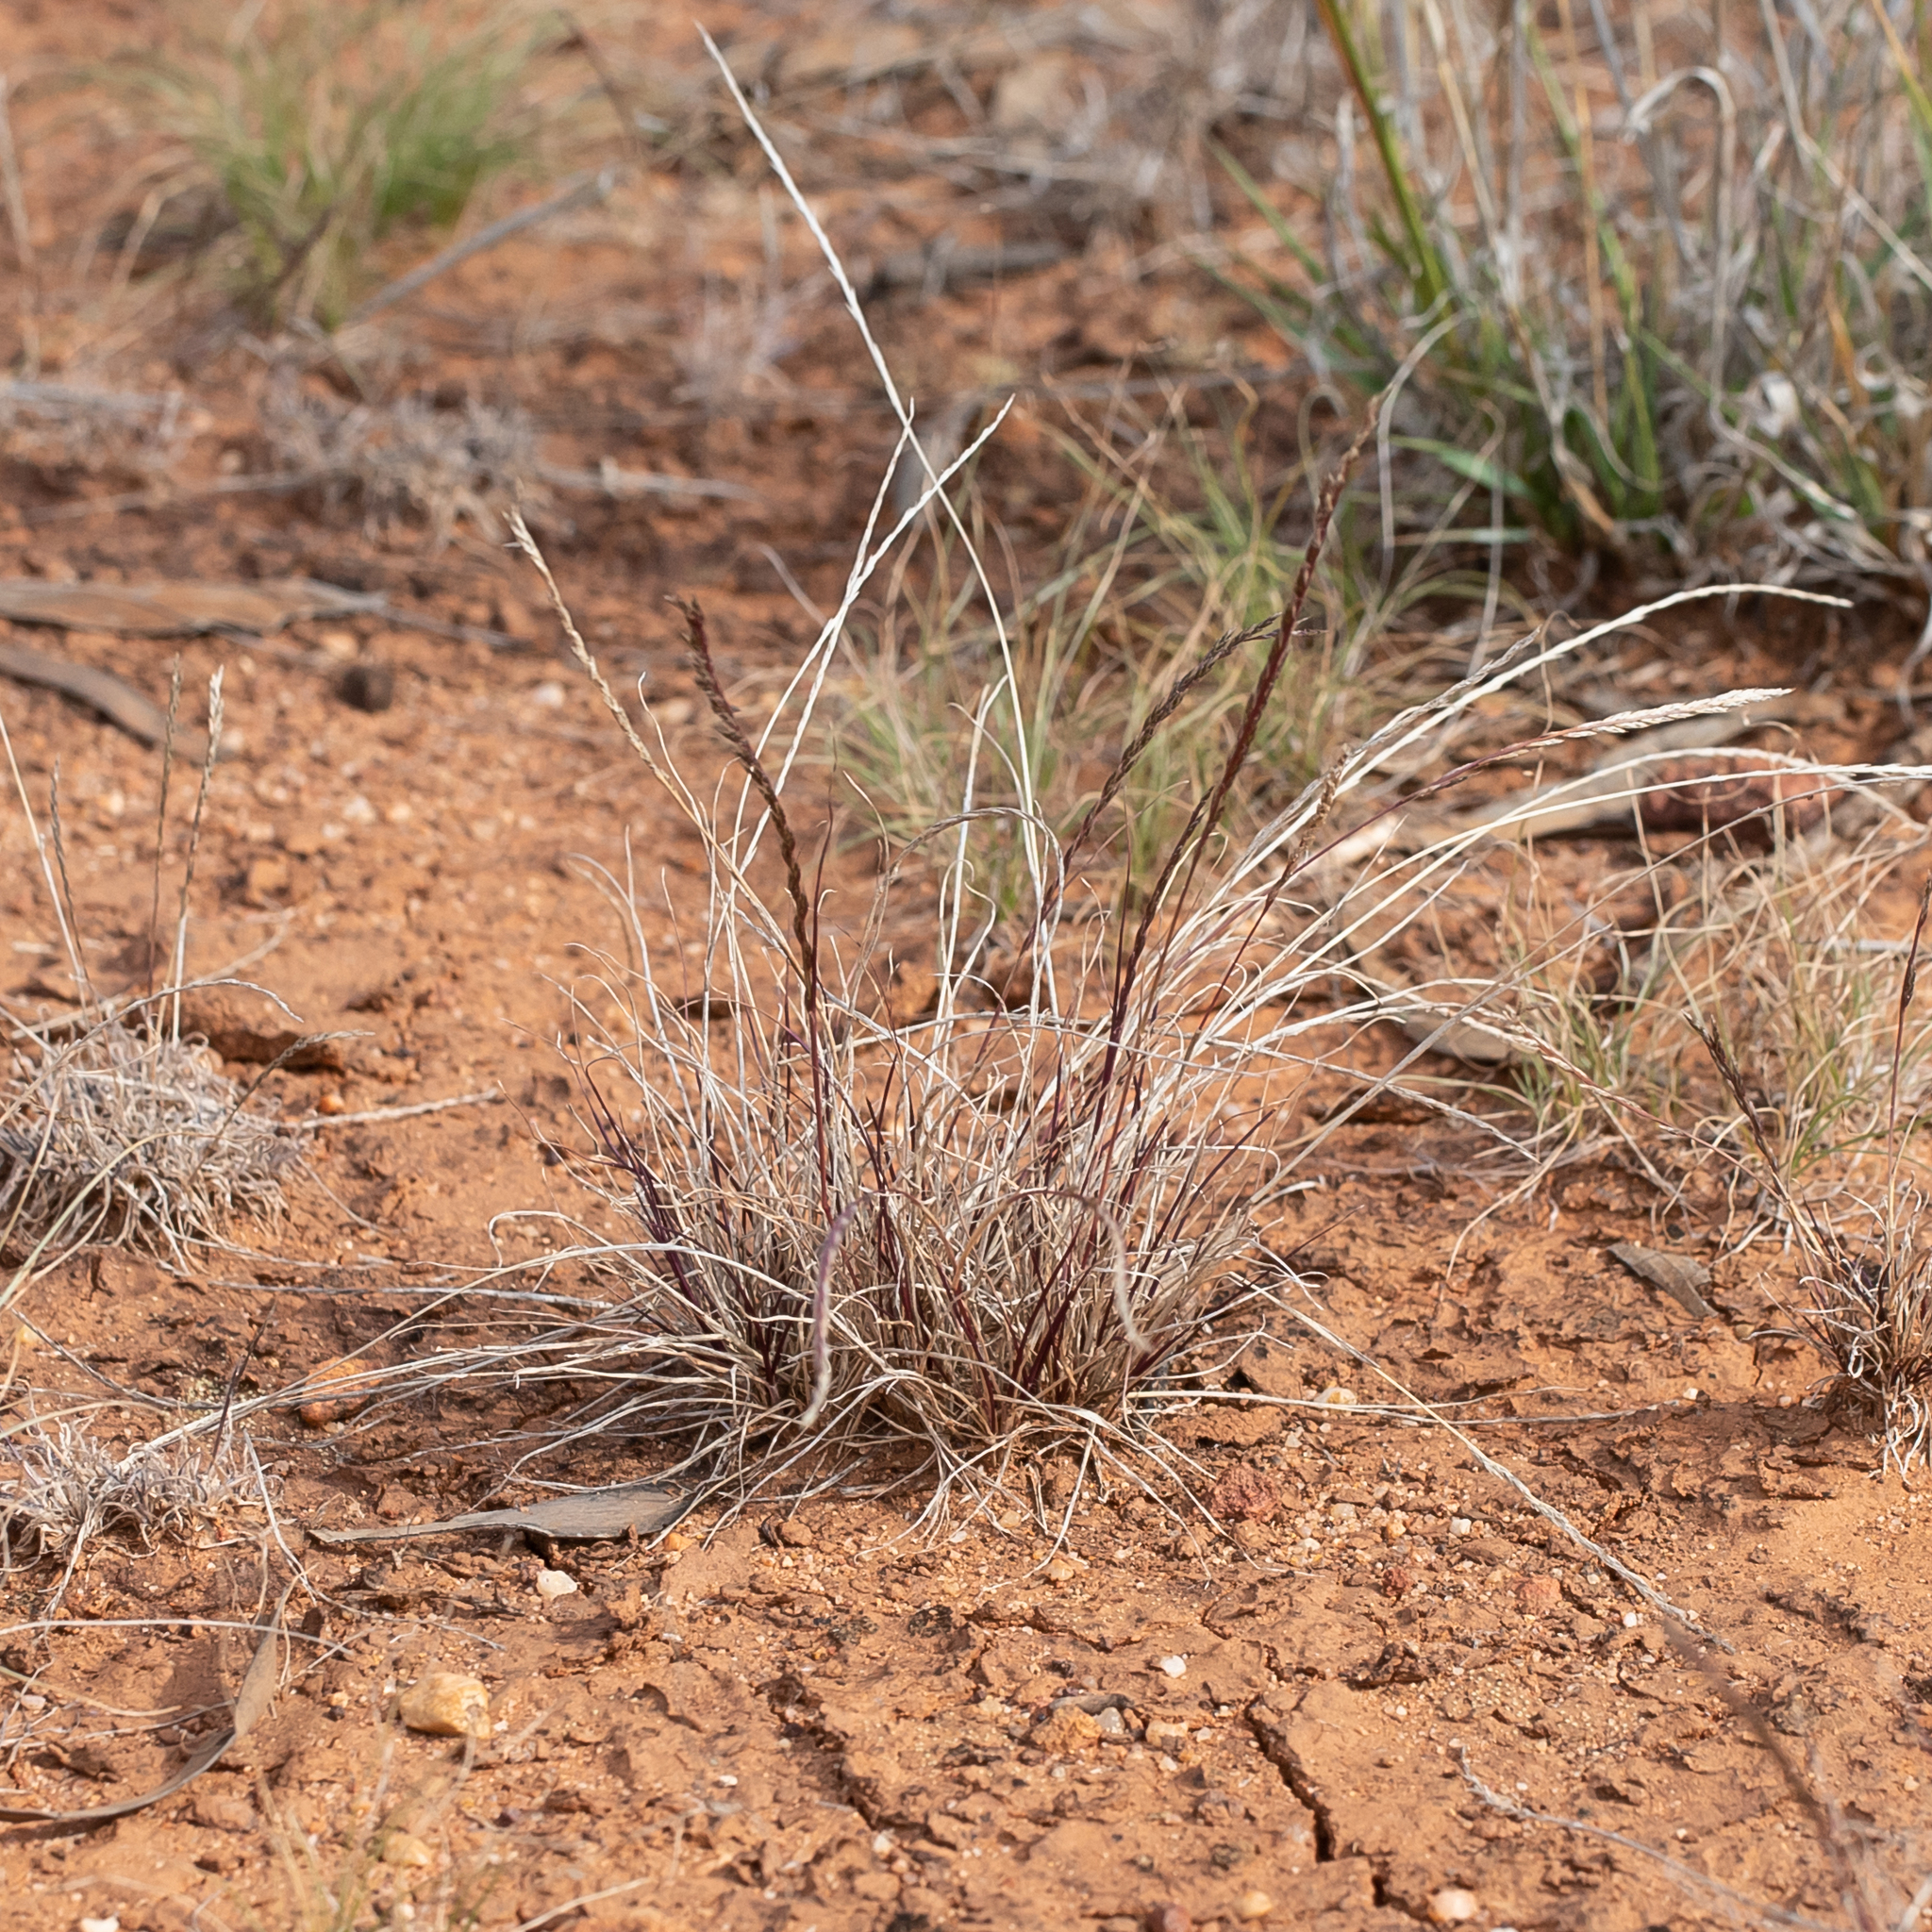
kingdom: Plantae
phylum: Tracheophyta
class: Liliopsida
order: Poales
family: Poaceae
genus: Tripogonella
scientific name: Tripogonella loliiformis
